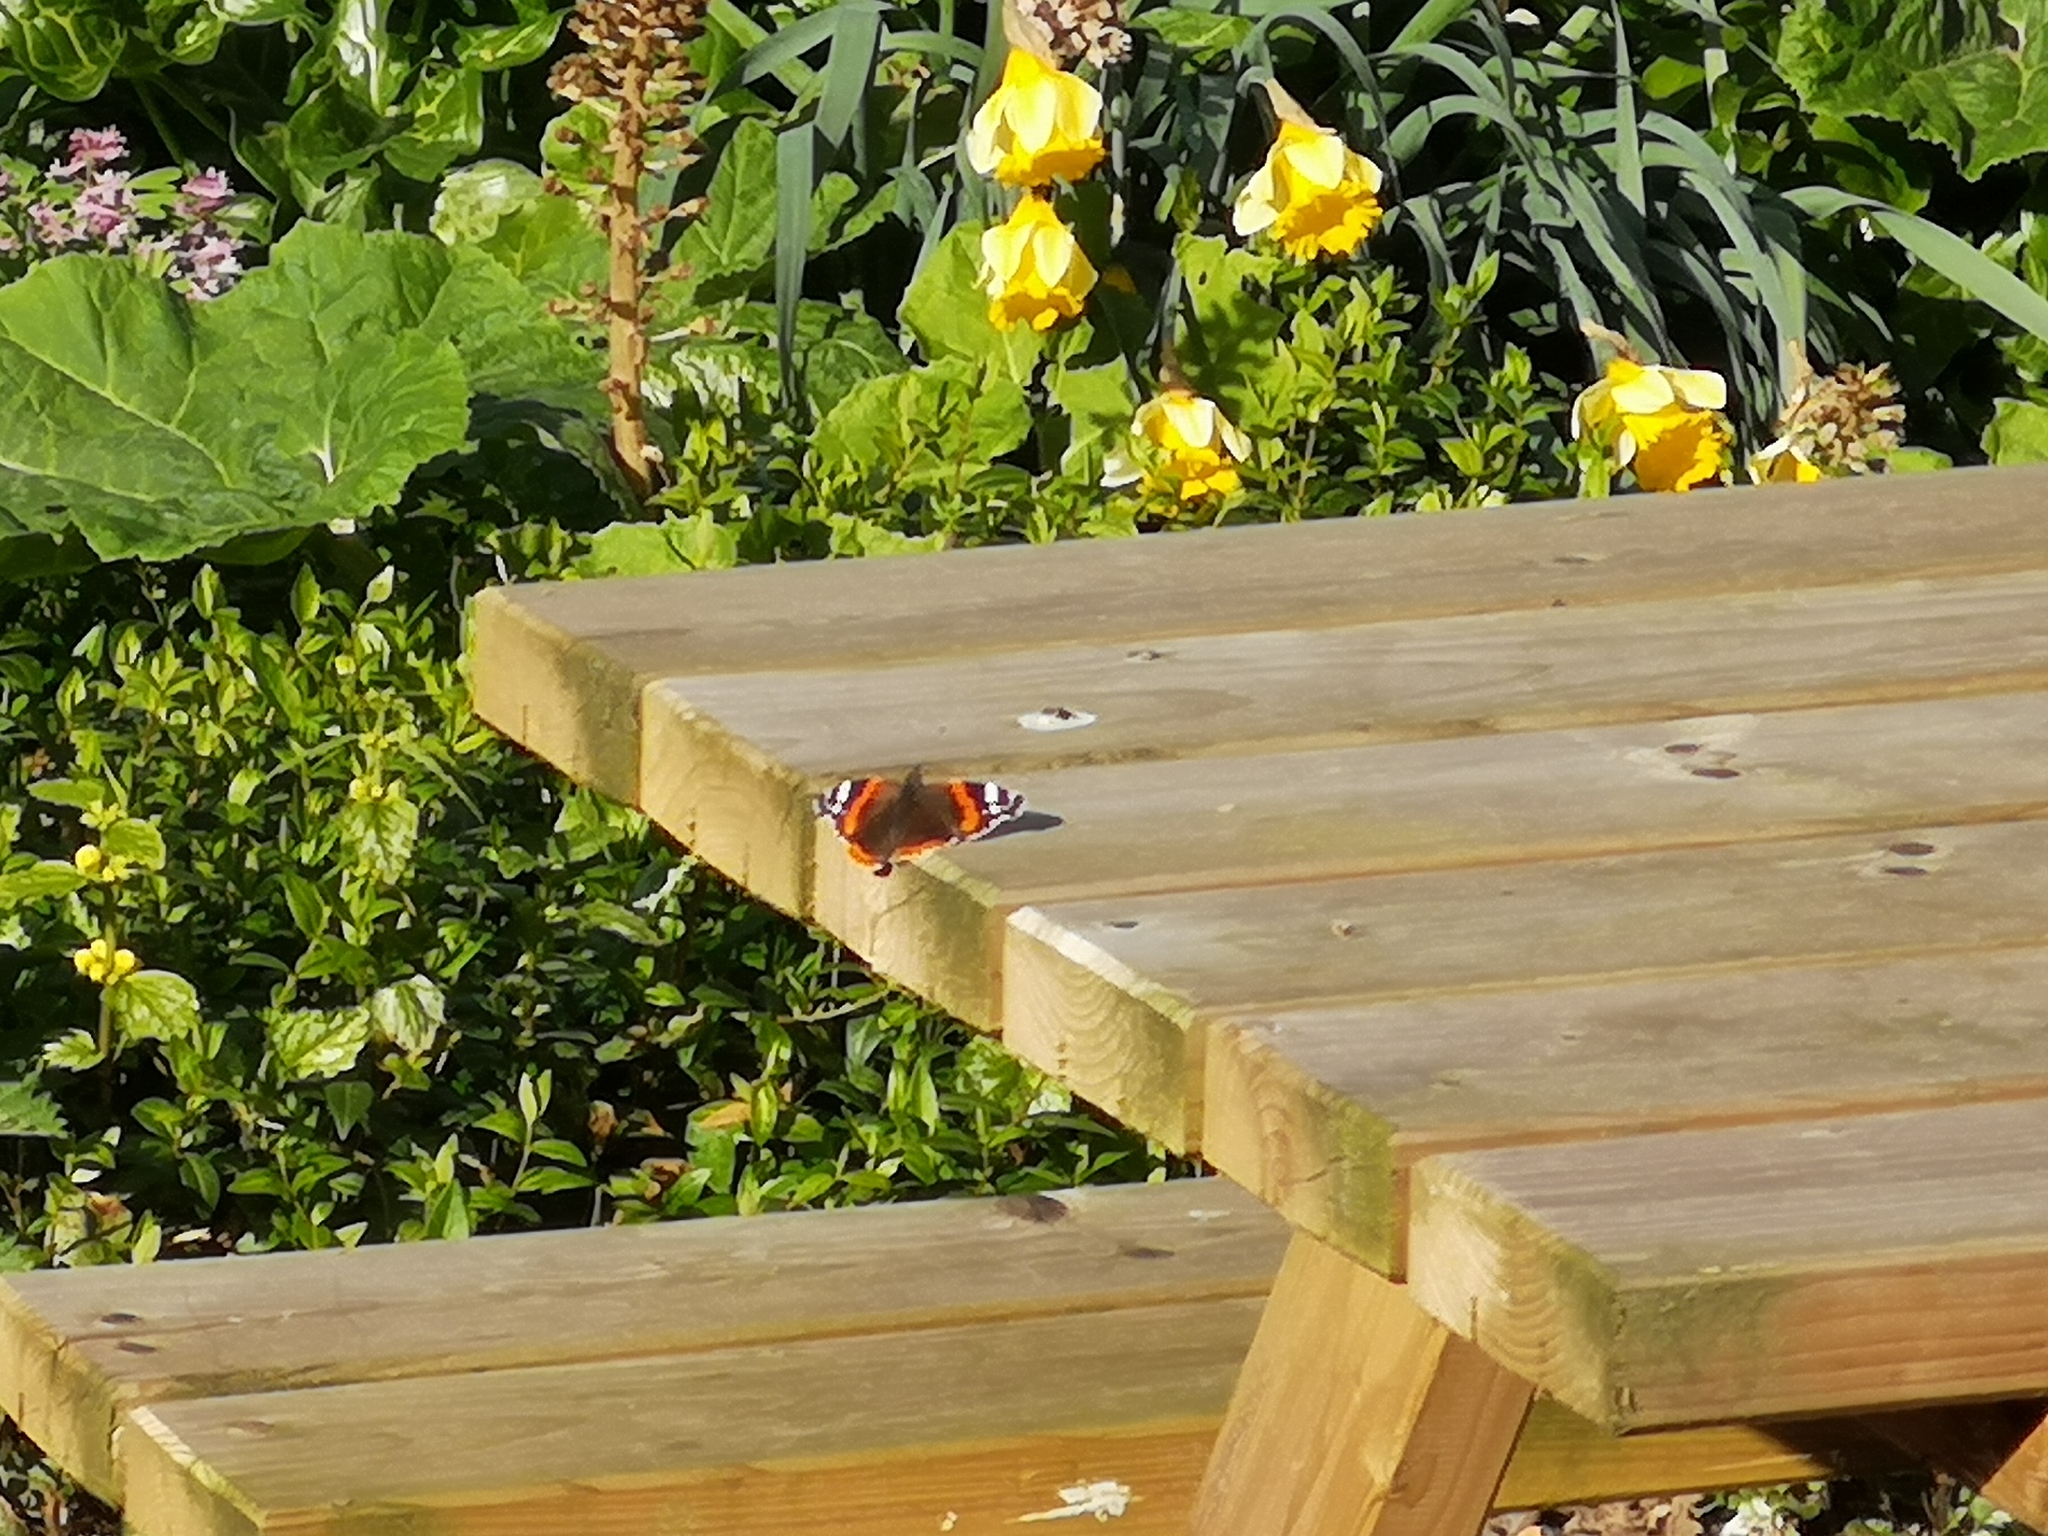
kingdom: Animalia
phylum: Arthropoda
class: Insecta
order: Lepidoptera
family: Nymphalidae
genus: Vanessa
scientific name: Vanessa atalanta
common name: Red admiral
